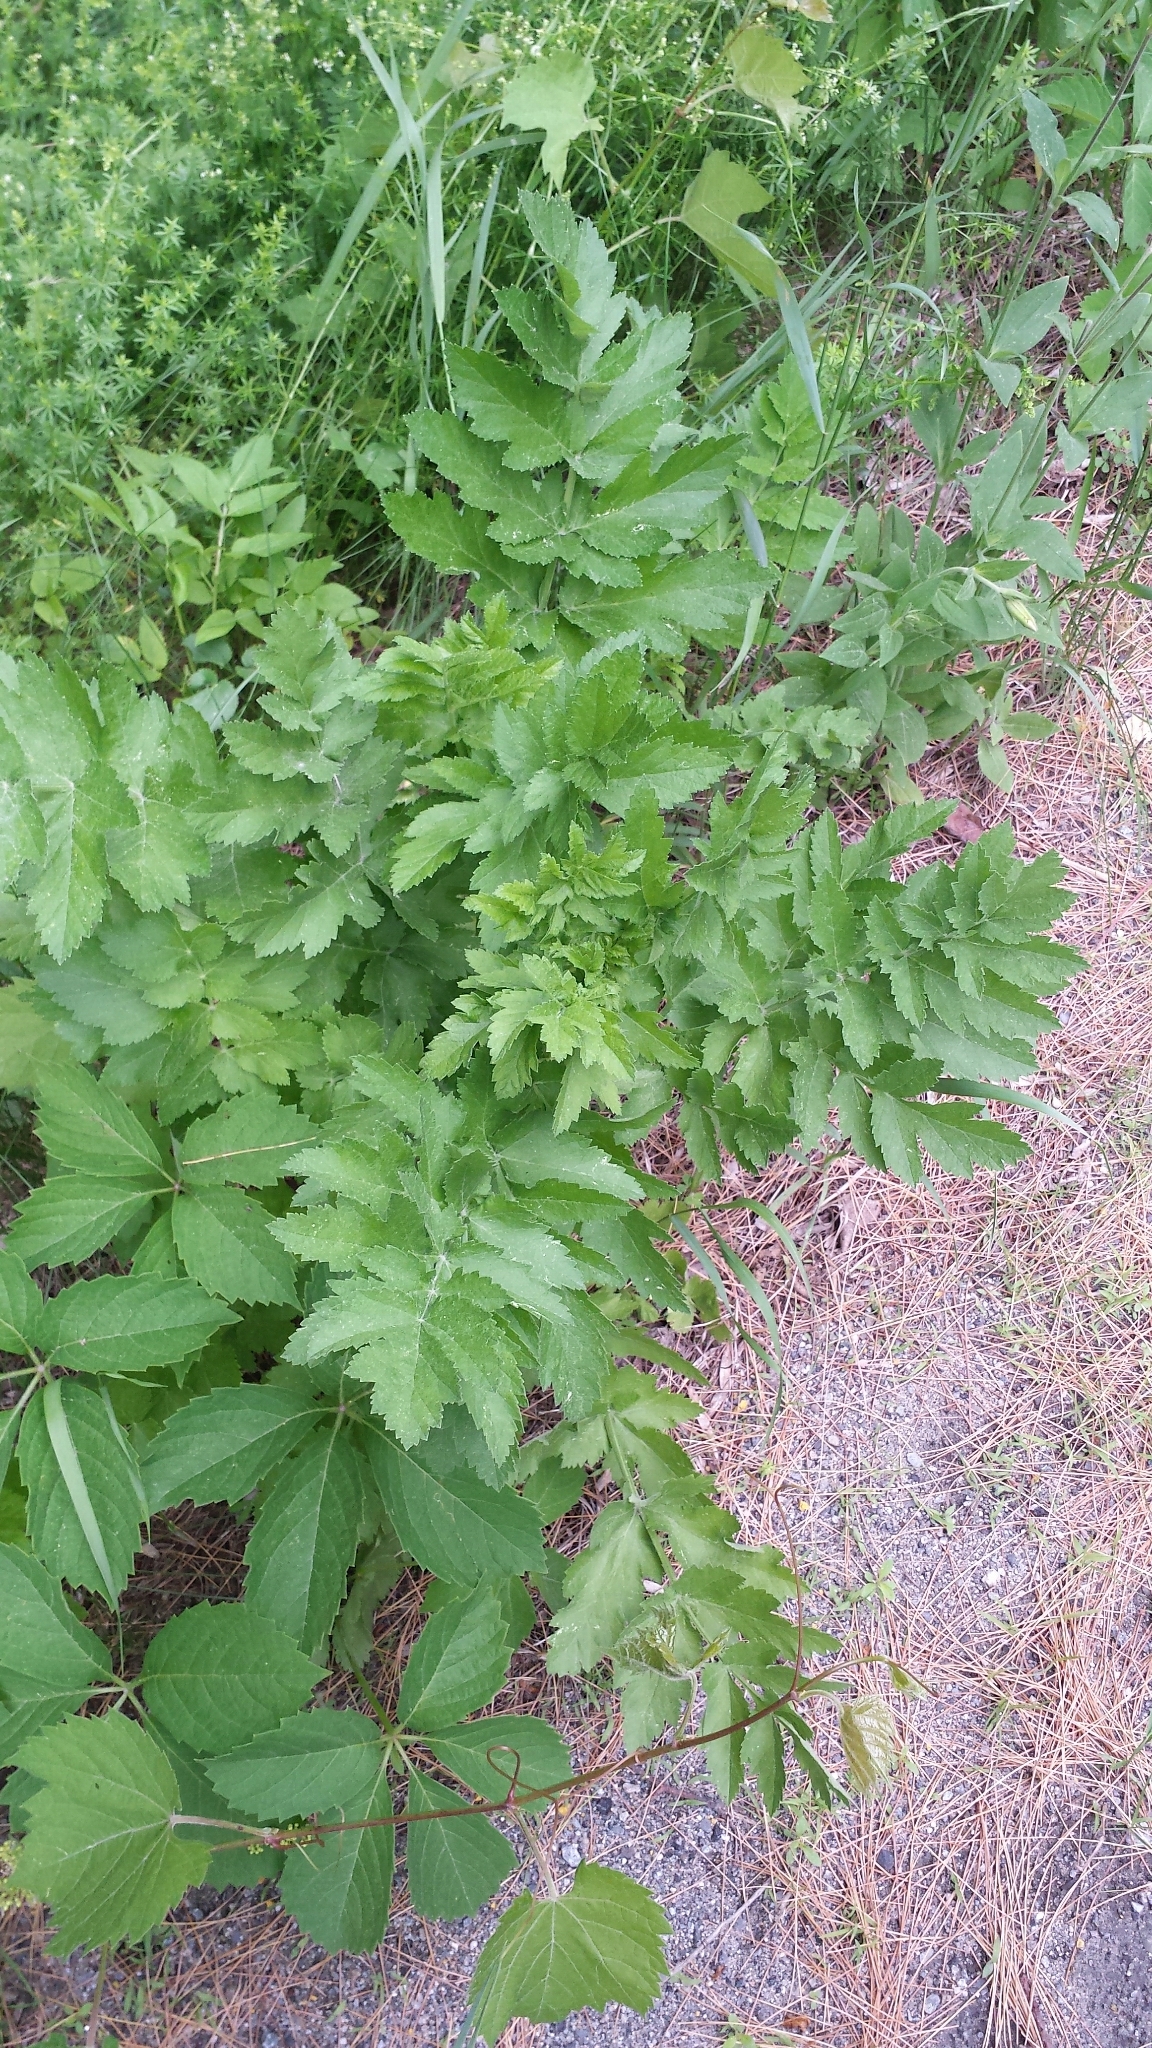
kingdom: Plantae
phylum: Tracheophyta
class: Magnoliopsida
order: Apiales
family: Apiaceae
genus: Pastinaca
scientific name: Pastinaca sativa
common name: Wild parsnip
